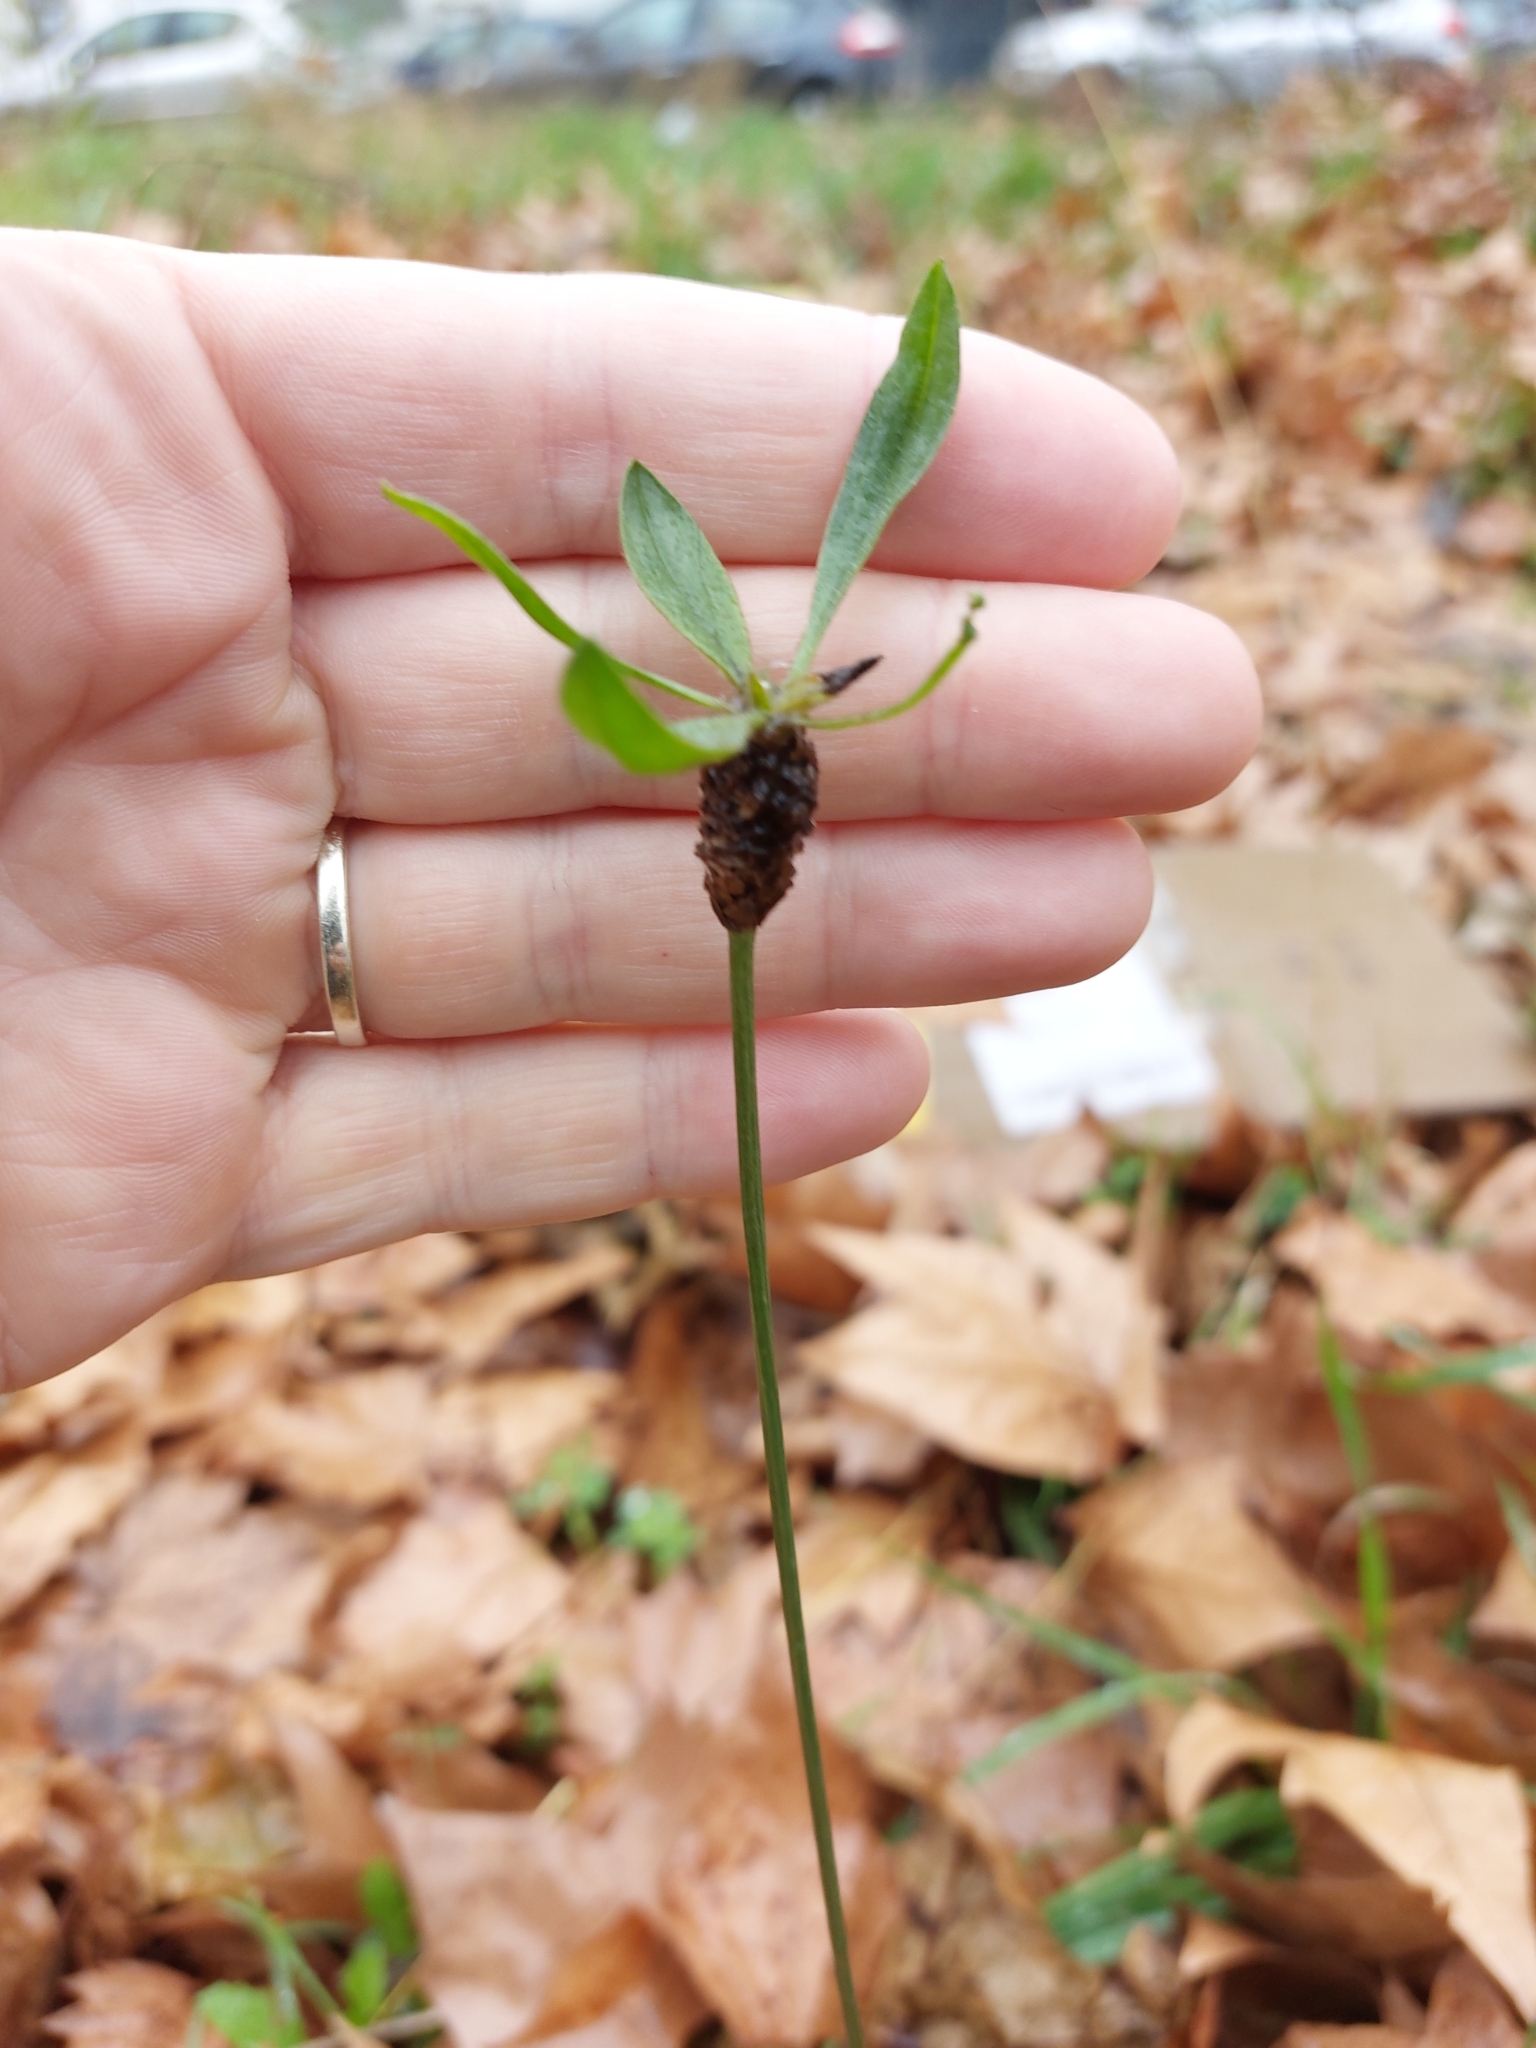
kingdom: Plantae
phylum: Tracheophyta
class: Magnoliopsida
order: Lamiales
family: Plantaginaceae
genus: Plantago
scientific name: Plantago lanceolata
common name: Ribwort plantain
